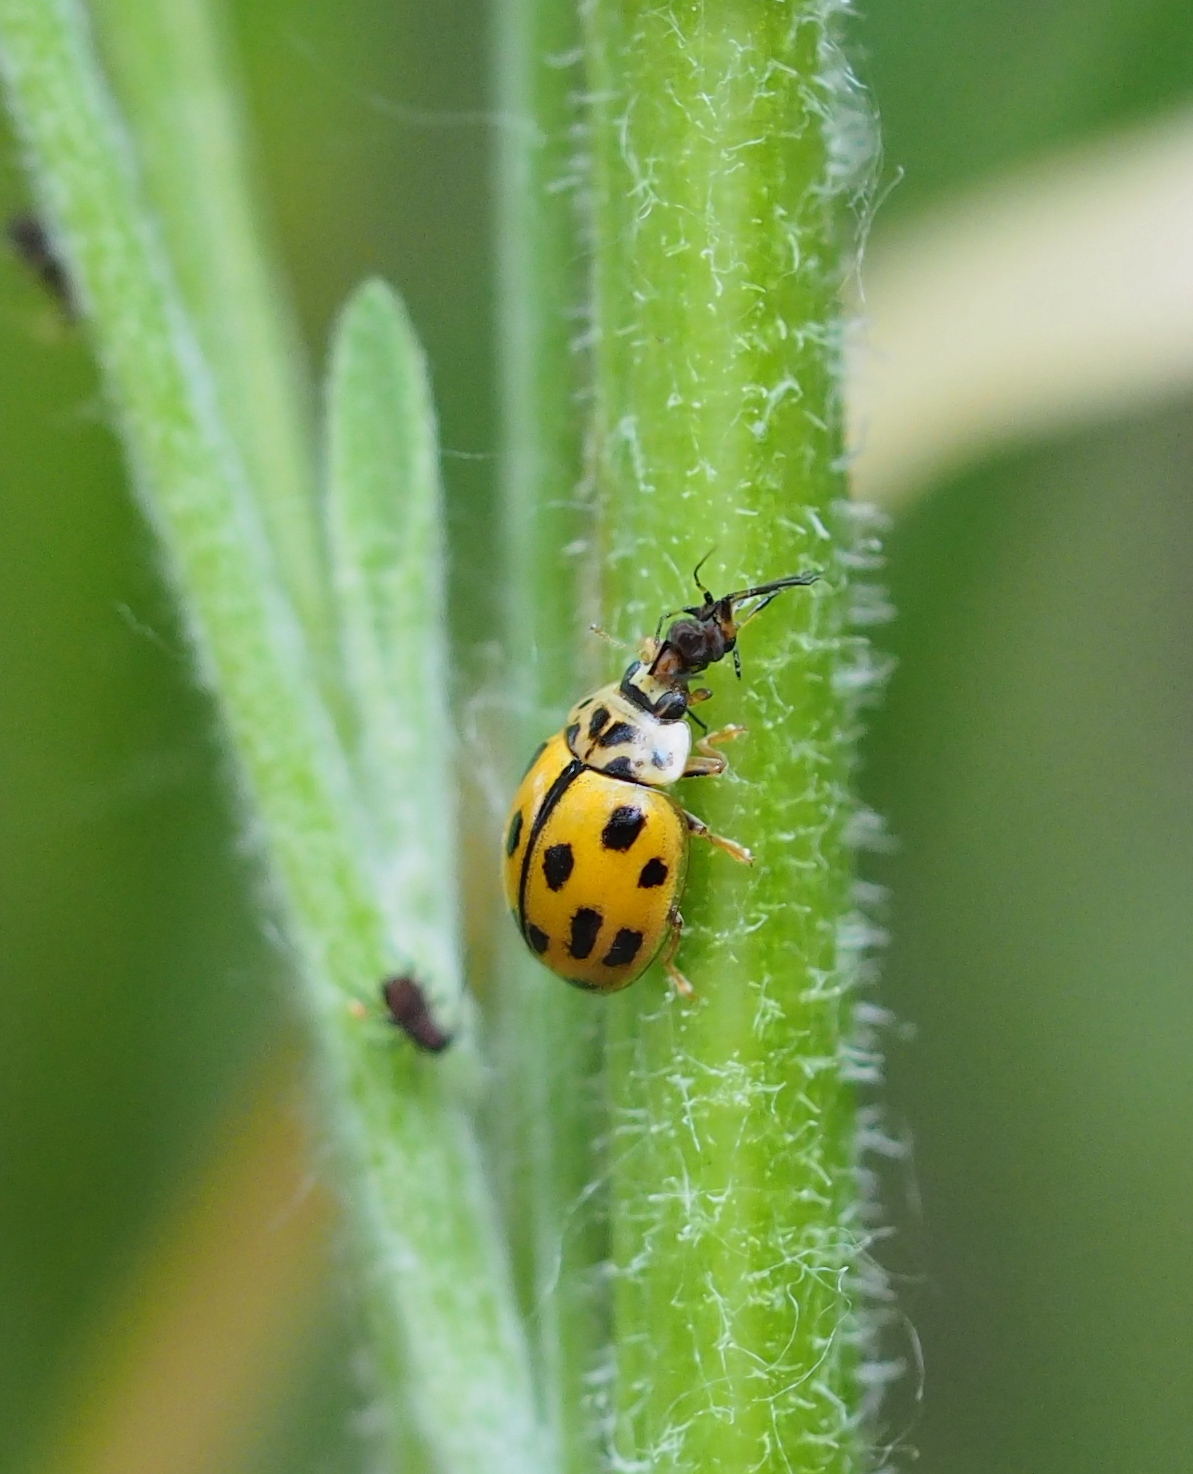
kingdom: Animalia
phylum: Arthropoda
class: Insecta
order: Coleoptera
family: Coccinellidae
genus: Propylaea
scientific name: Propylaea quatuordecimpunctata
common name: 14-spotted ladybird beetle
